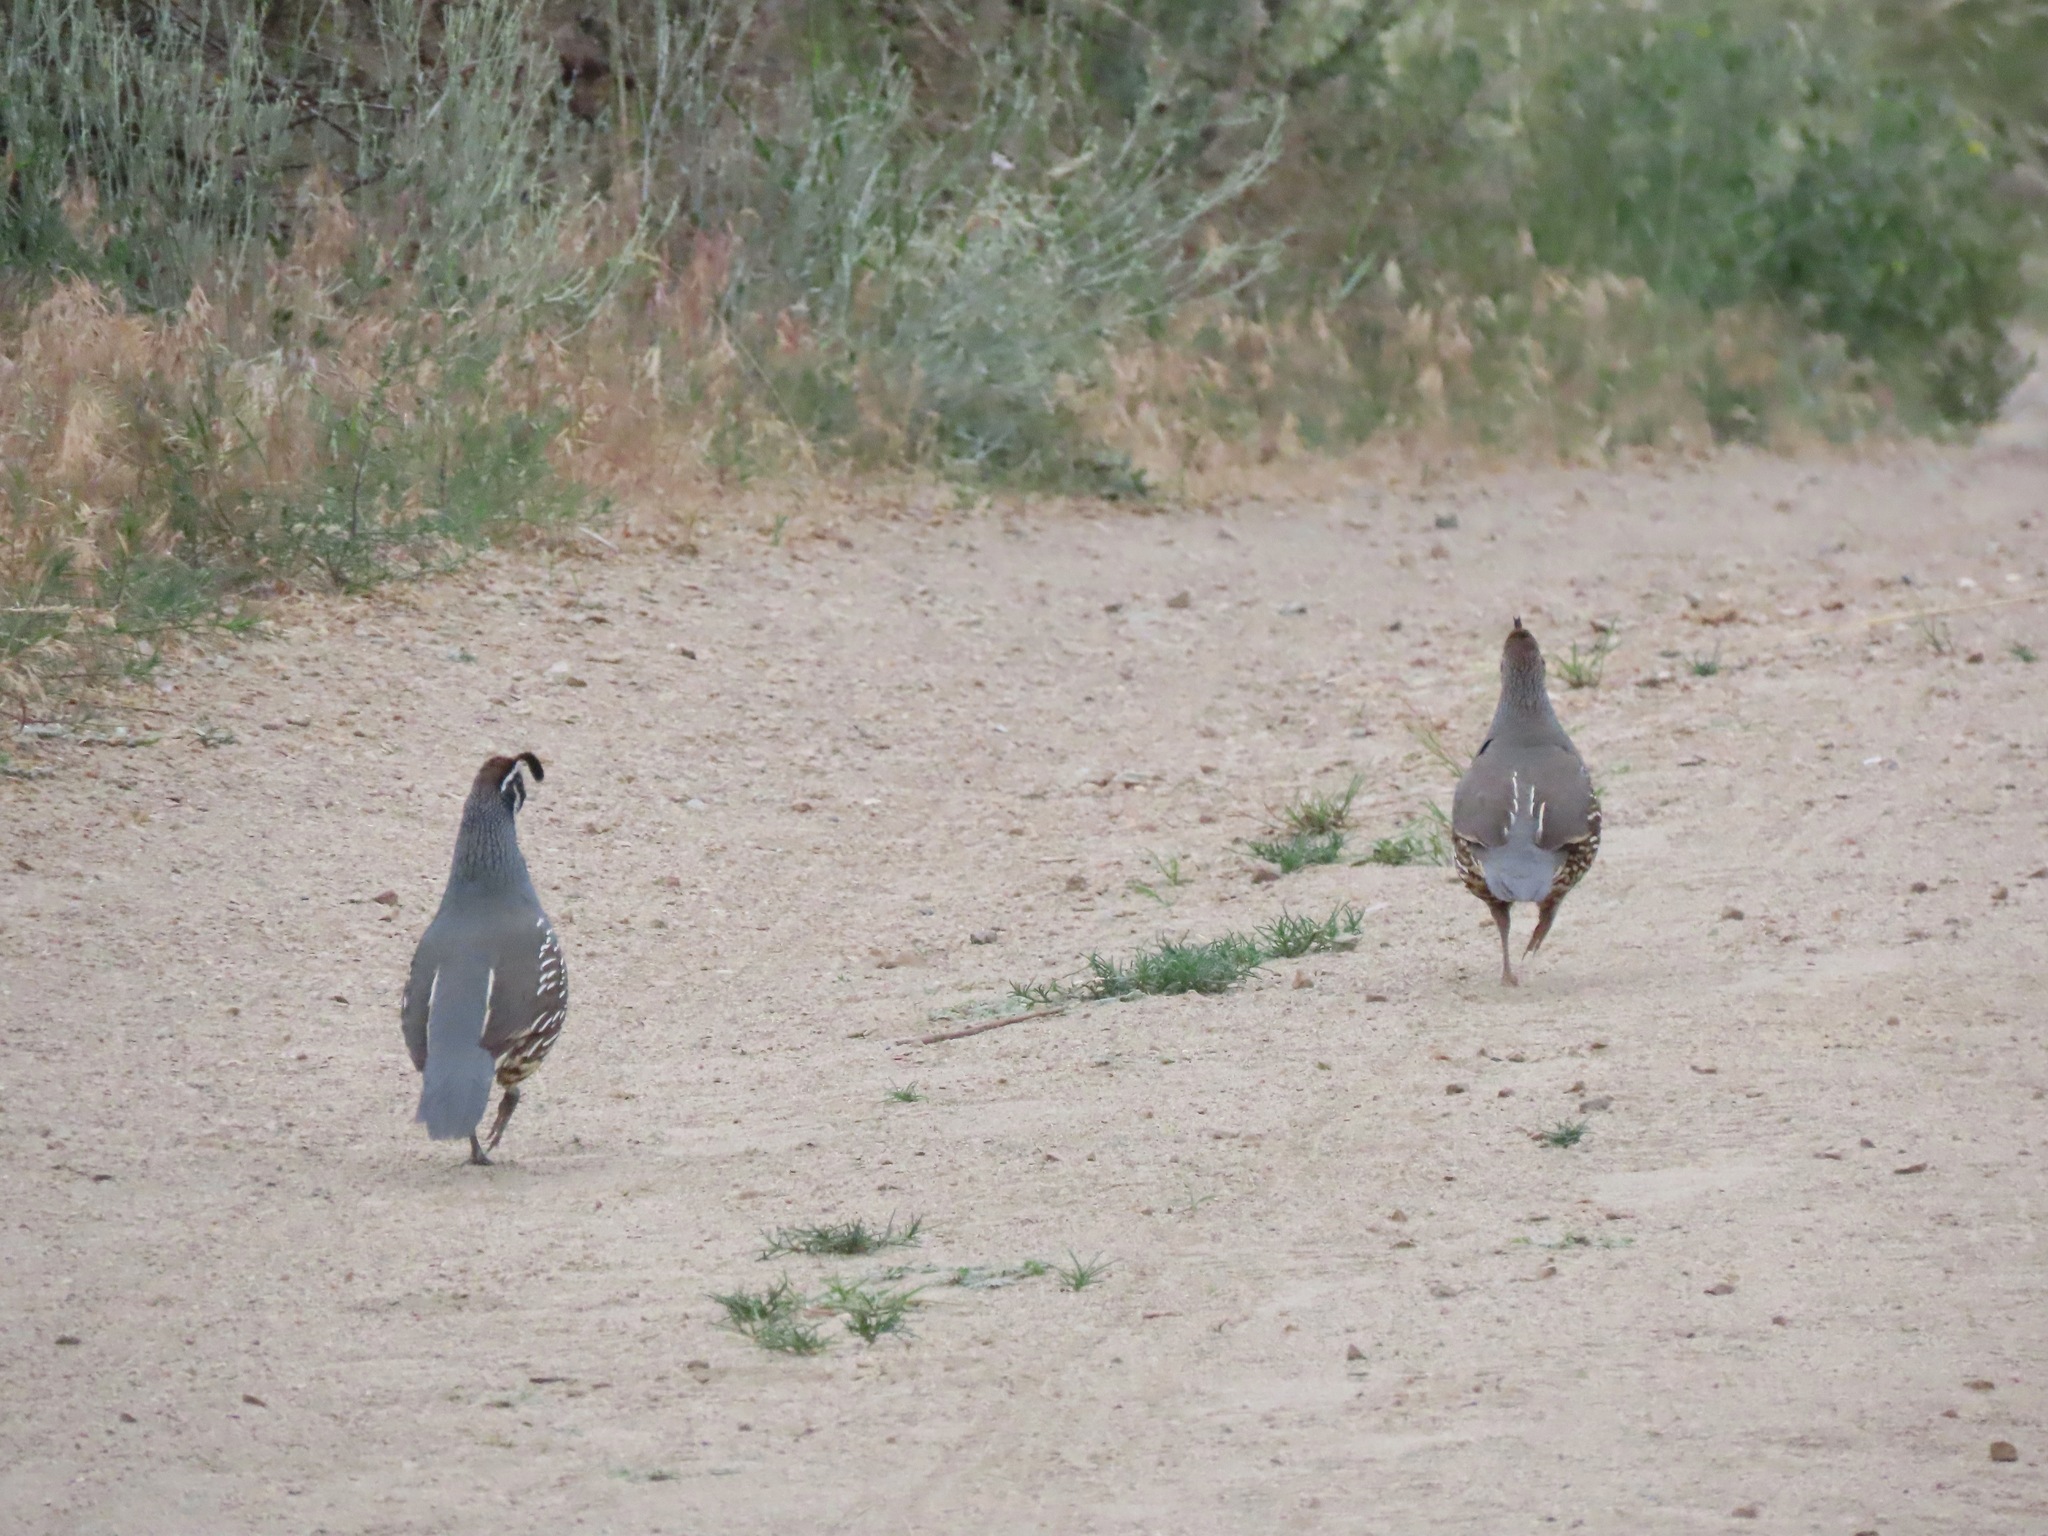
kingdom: Animalia
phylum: Chordata
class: Aves
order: Galliformes
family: Odontophoridae
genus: Callipepla
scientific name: Callipepla californica
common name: California quail
